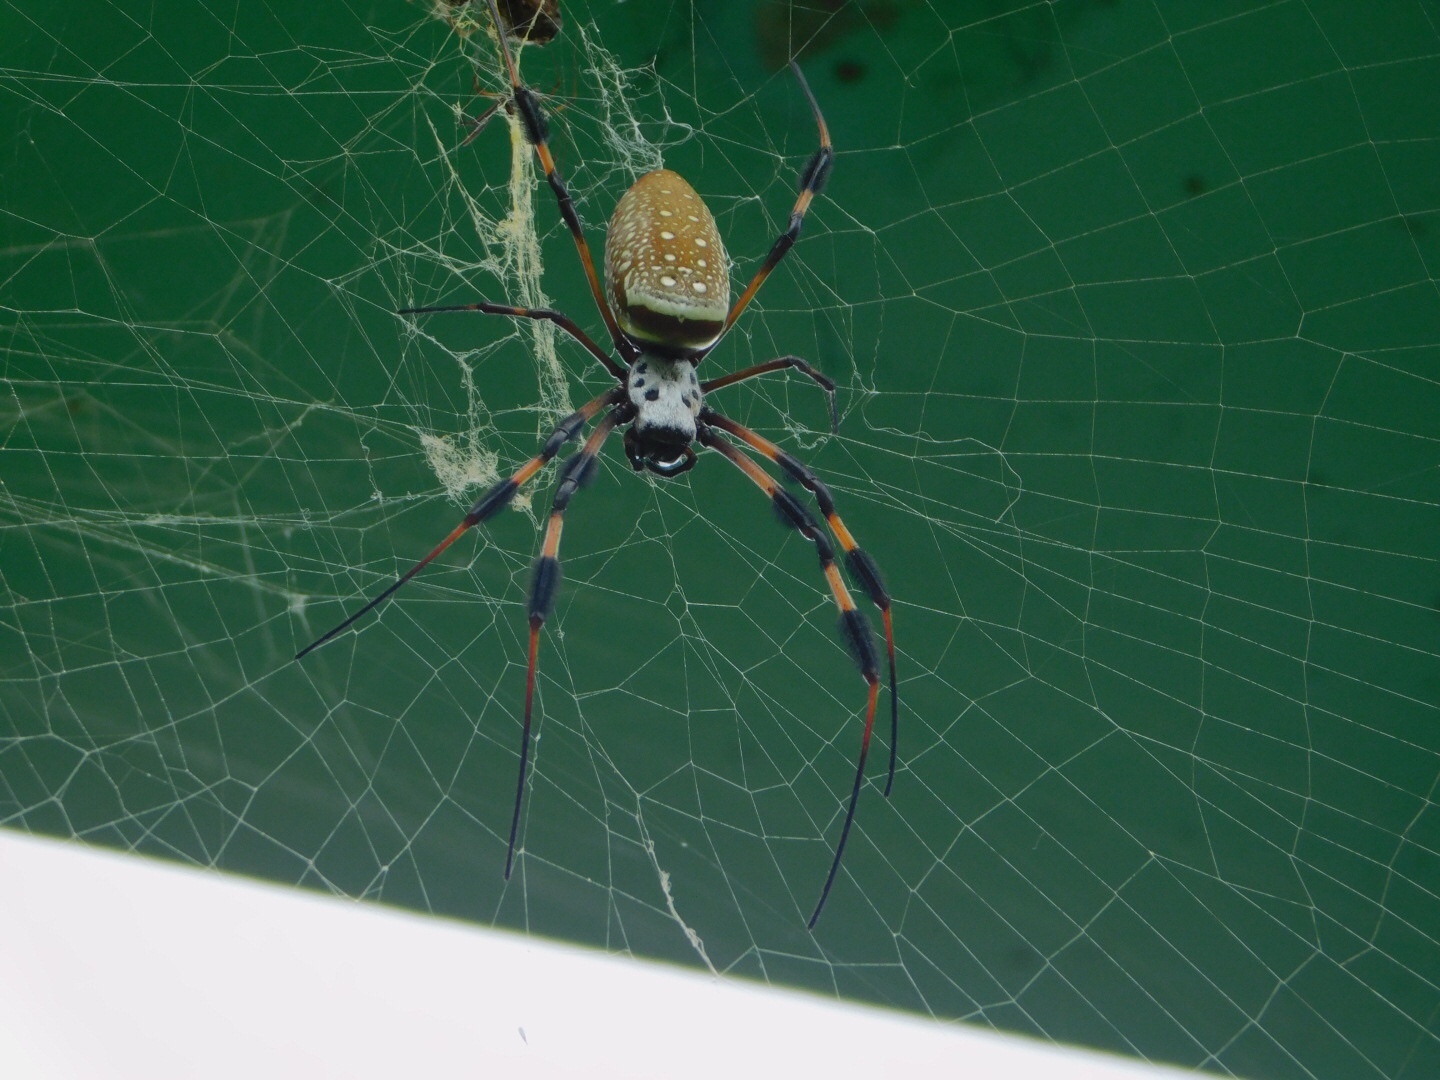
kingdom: Animalia
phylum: Arthropoda
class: Arachnida
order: Araneae
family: Araneidae
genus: Trichonephila
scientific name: Trichonephila clavipes
